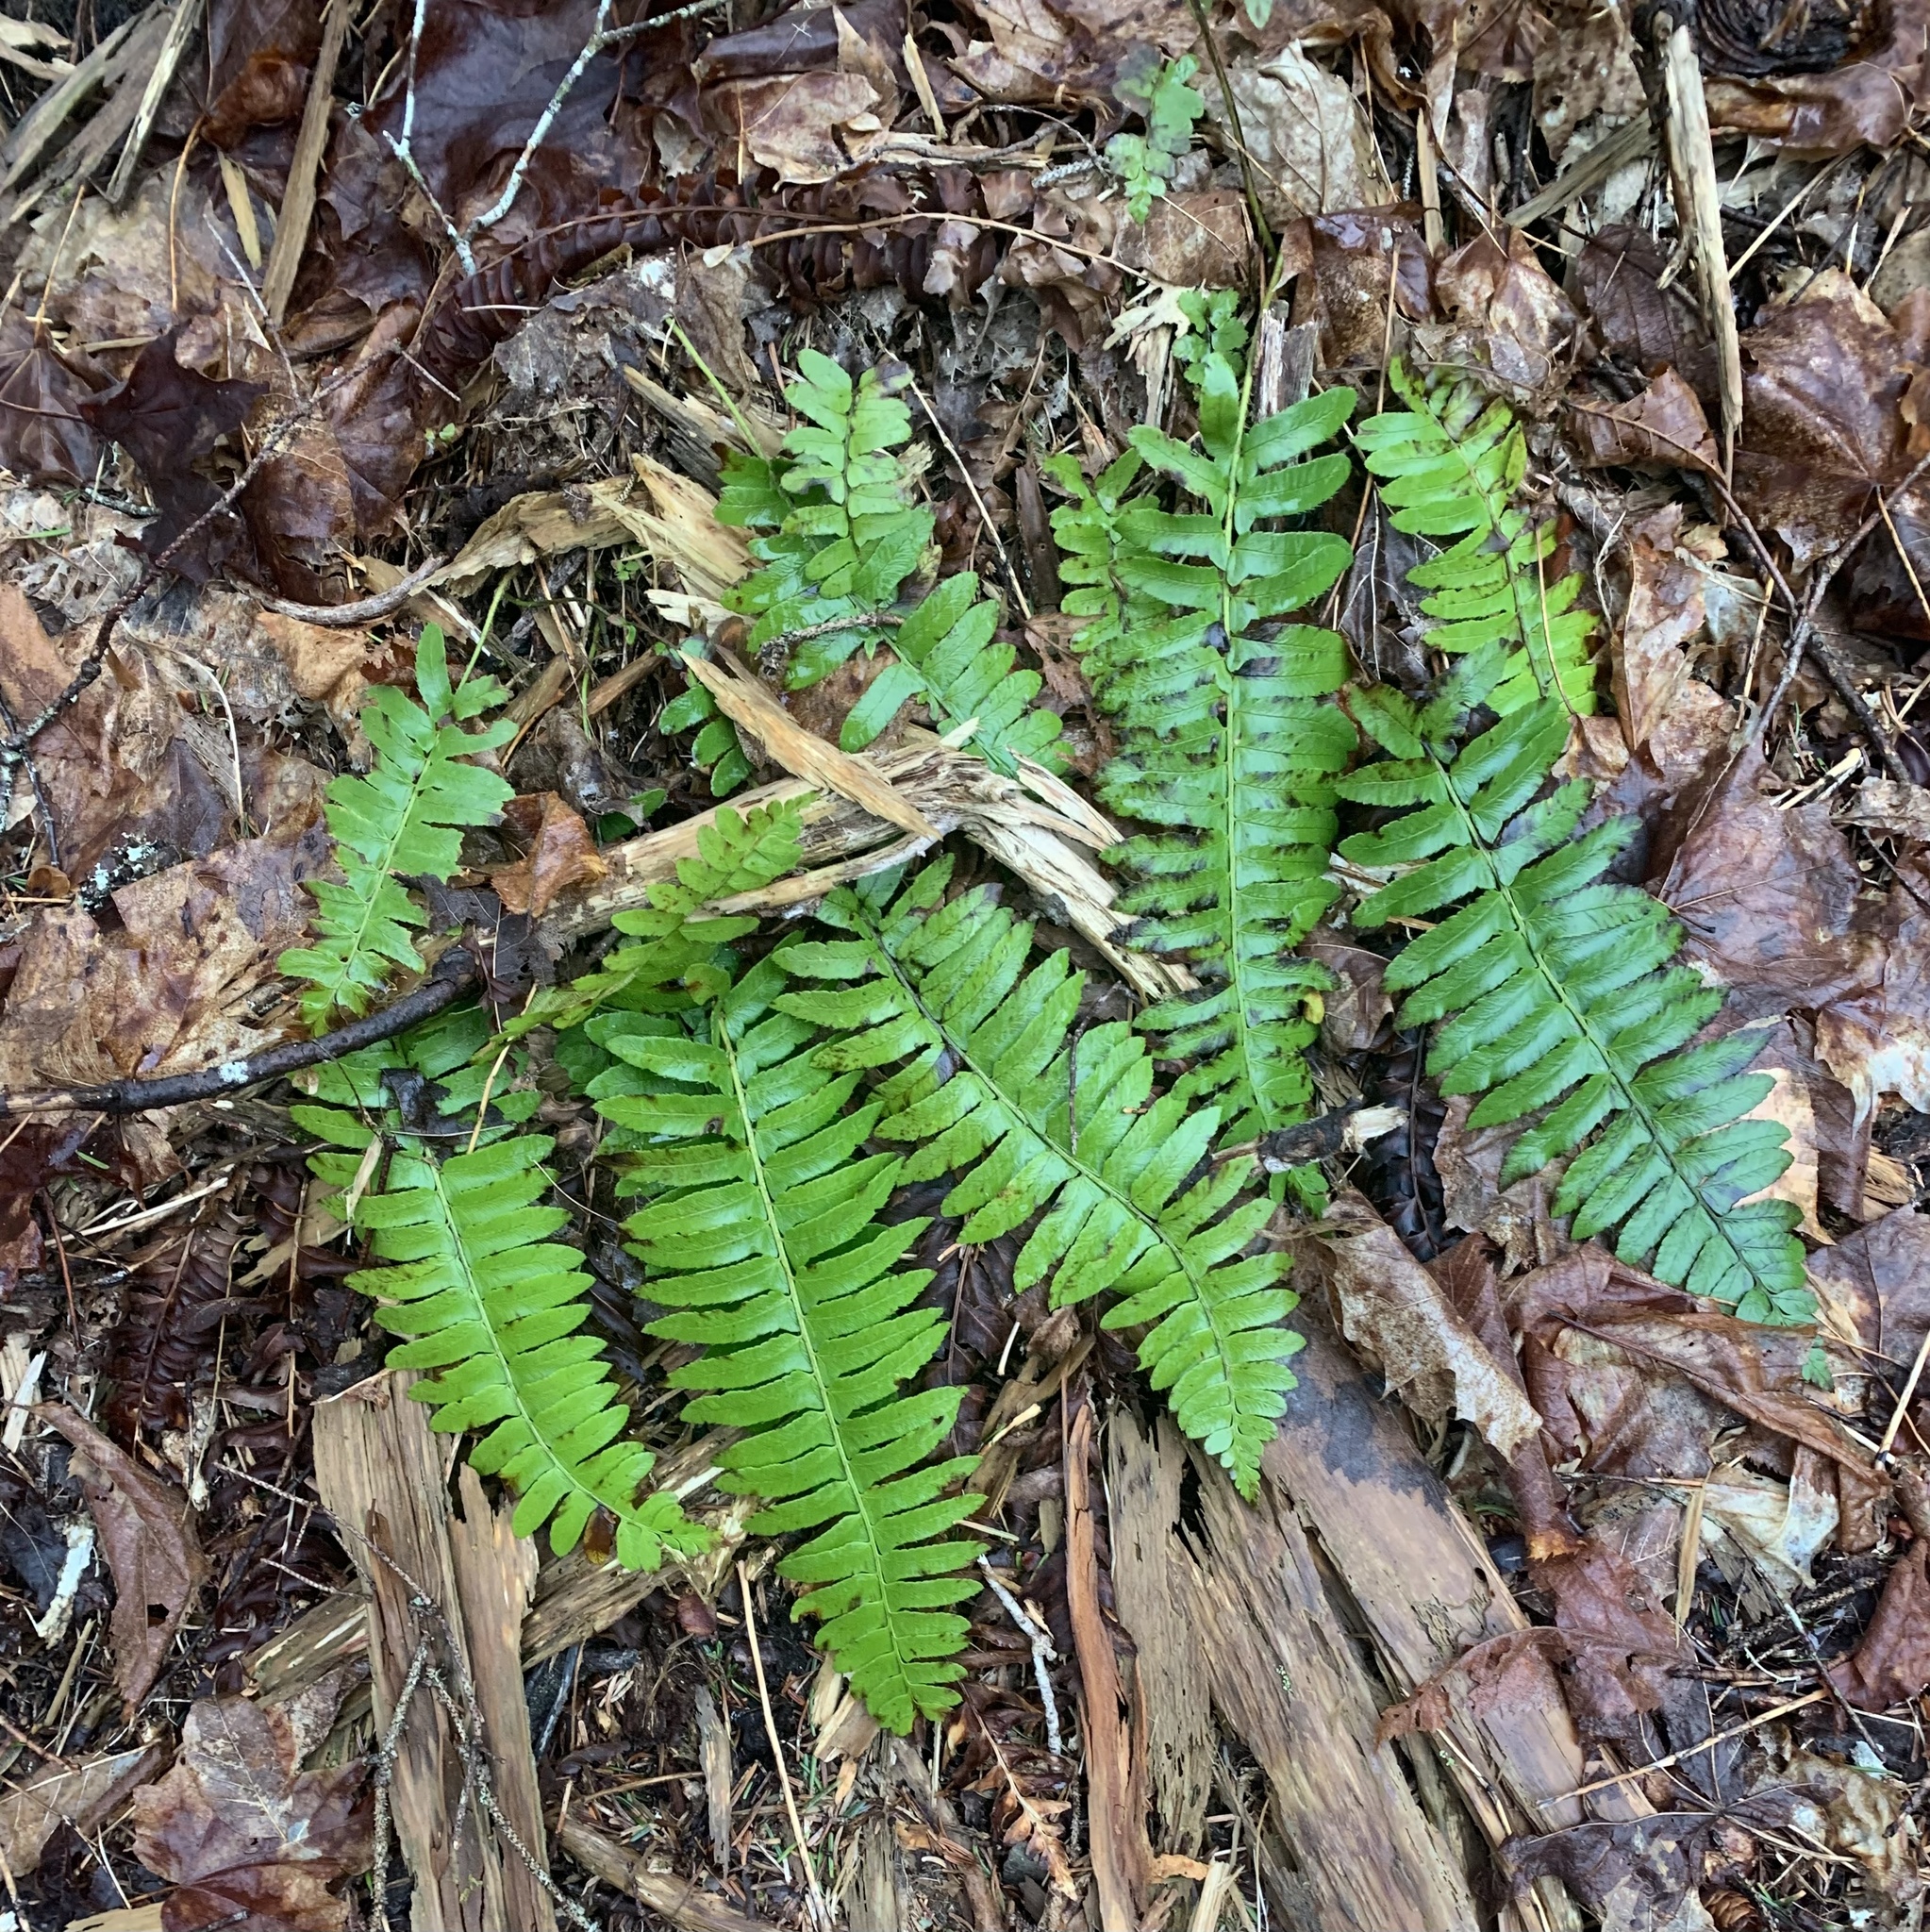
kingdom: Plantae
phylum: Tracheophyta
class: Polypodiopsida
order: Polypodiales
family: Dryopteridaceae
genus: Polystichum
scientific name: Polystichum acrostichoides
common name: Christmas fern
